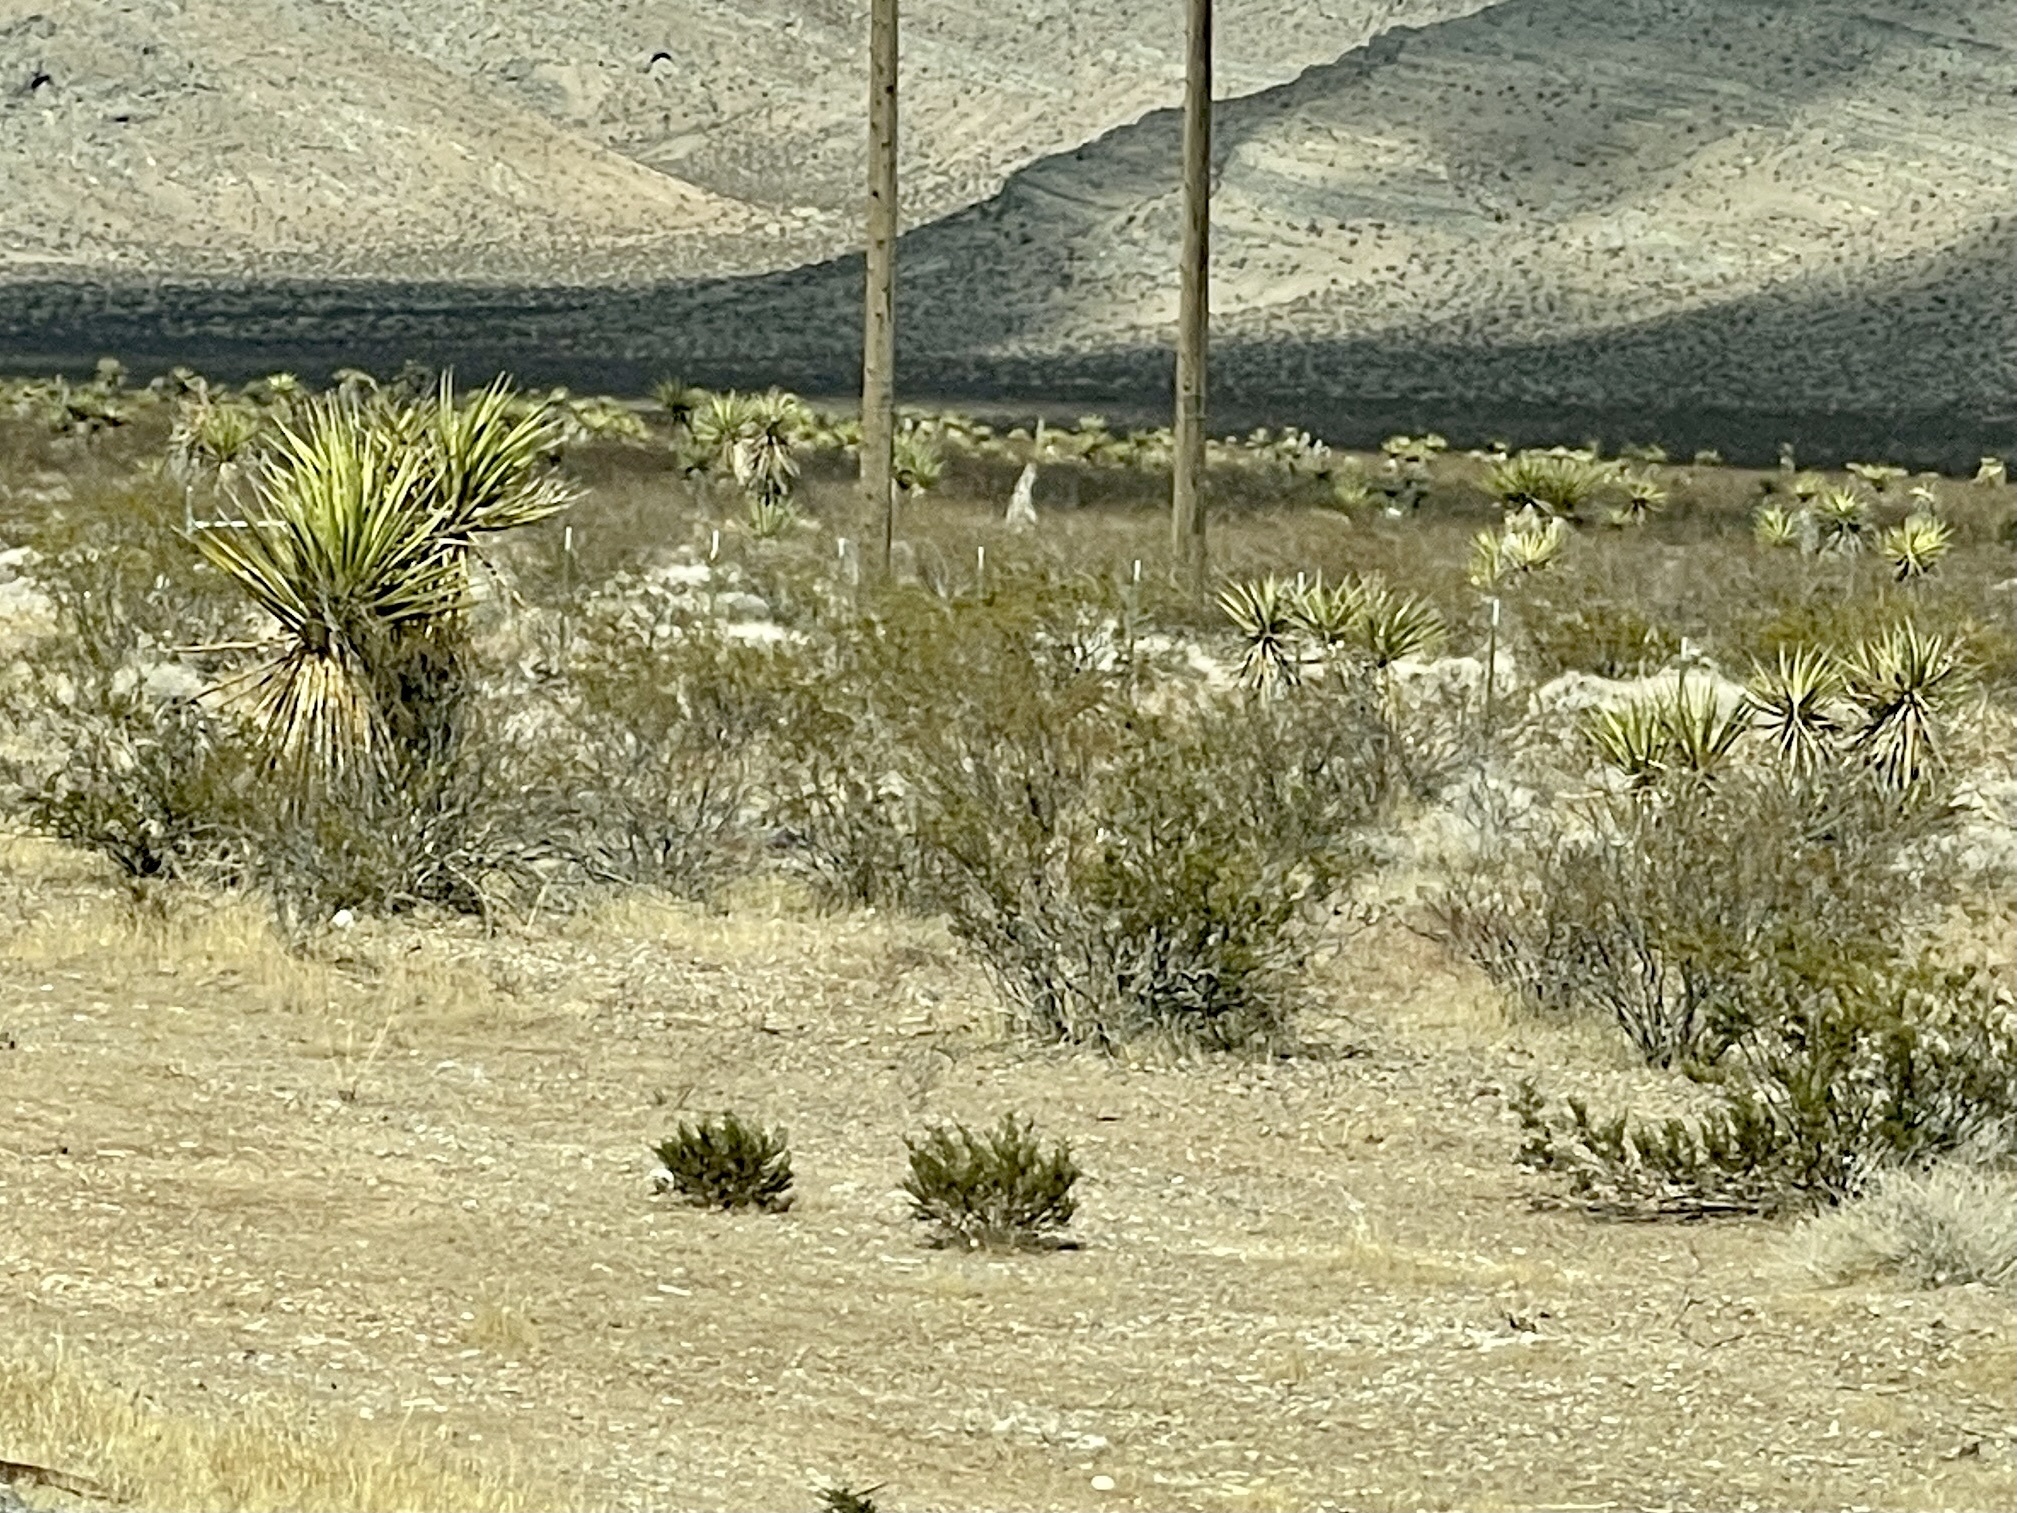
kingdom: Plantae
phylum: Tracheophyta
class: Magnoliopsida
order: Zygophyllales
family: Zygophyllaceae
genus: Larrea
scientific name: Larrea tridentata
